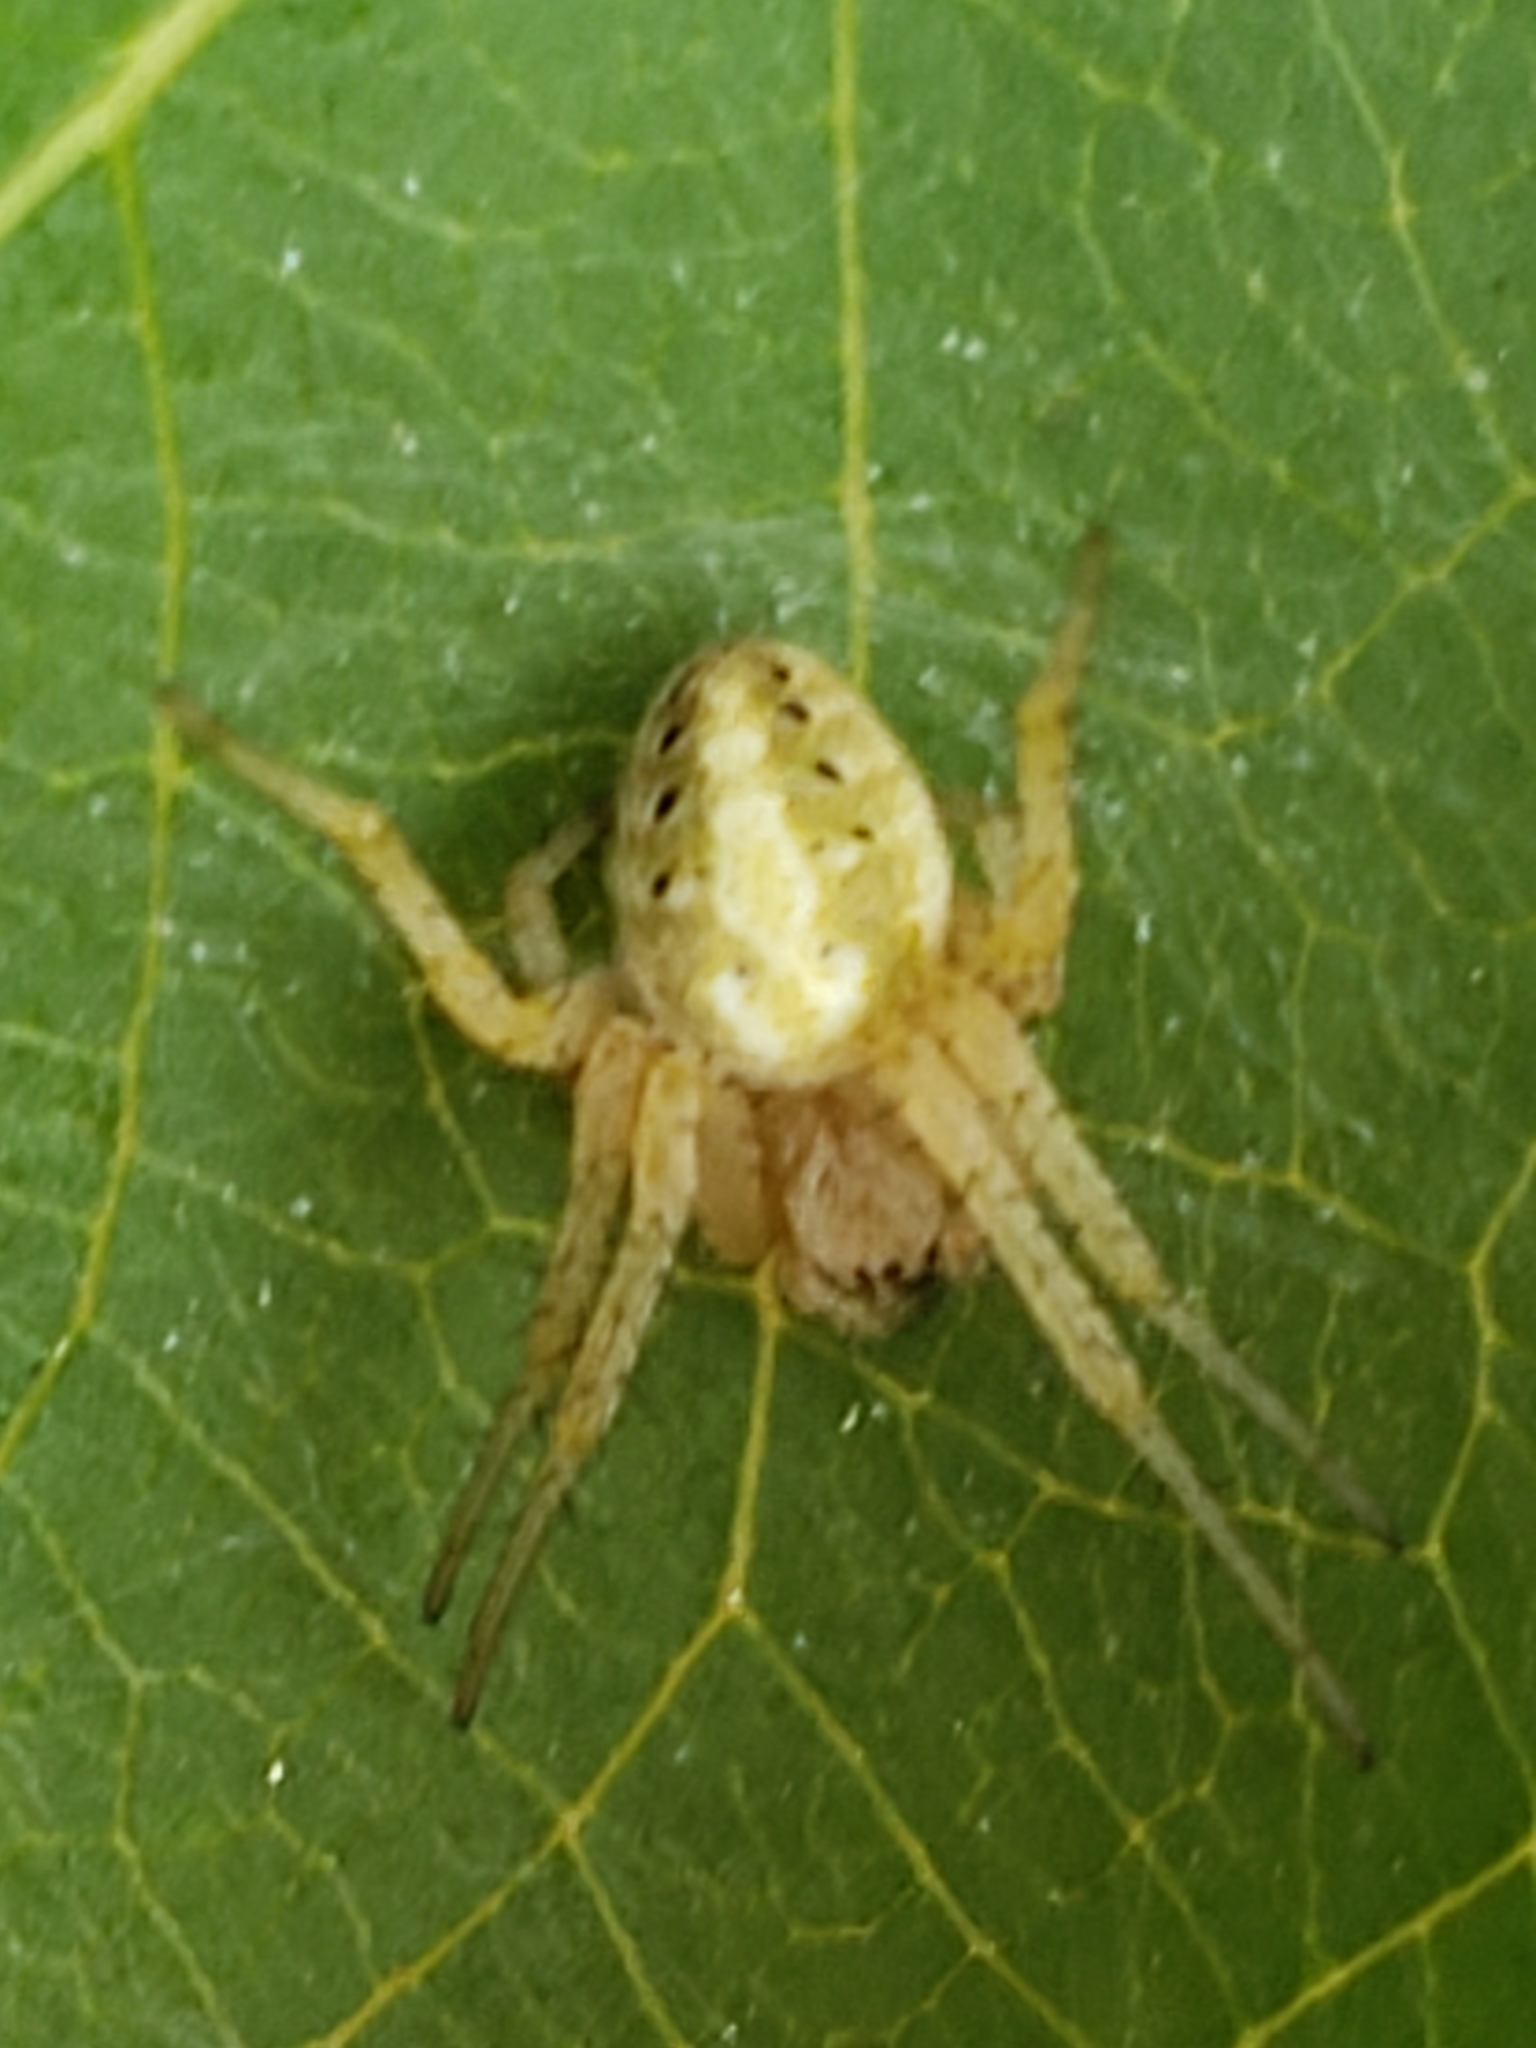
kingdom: Animalia
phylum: Arthropoda
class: Arachnida
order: Araneae
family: Araneidae
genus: Neoscona
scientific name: Neoscona arabesca
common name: Orb weavers
